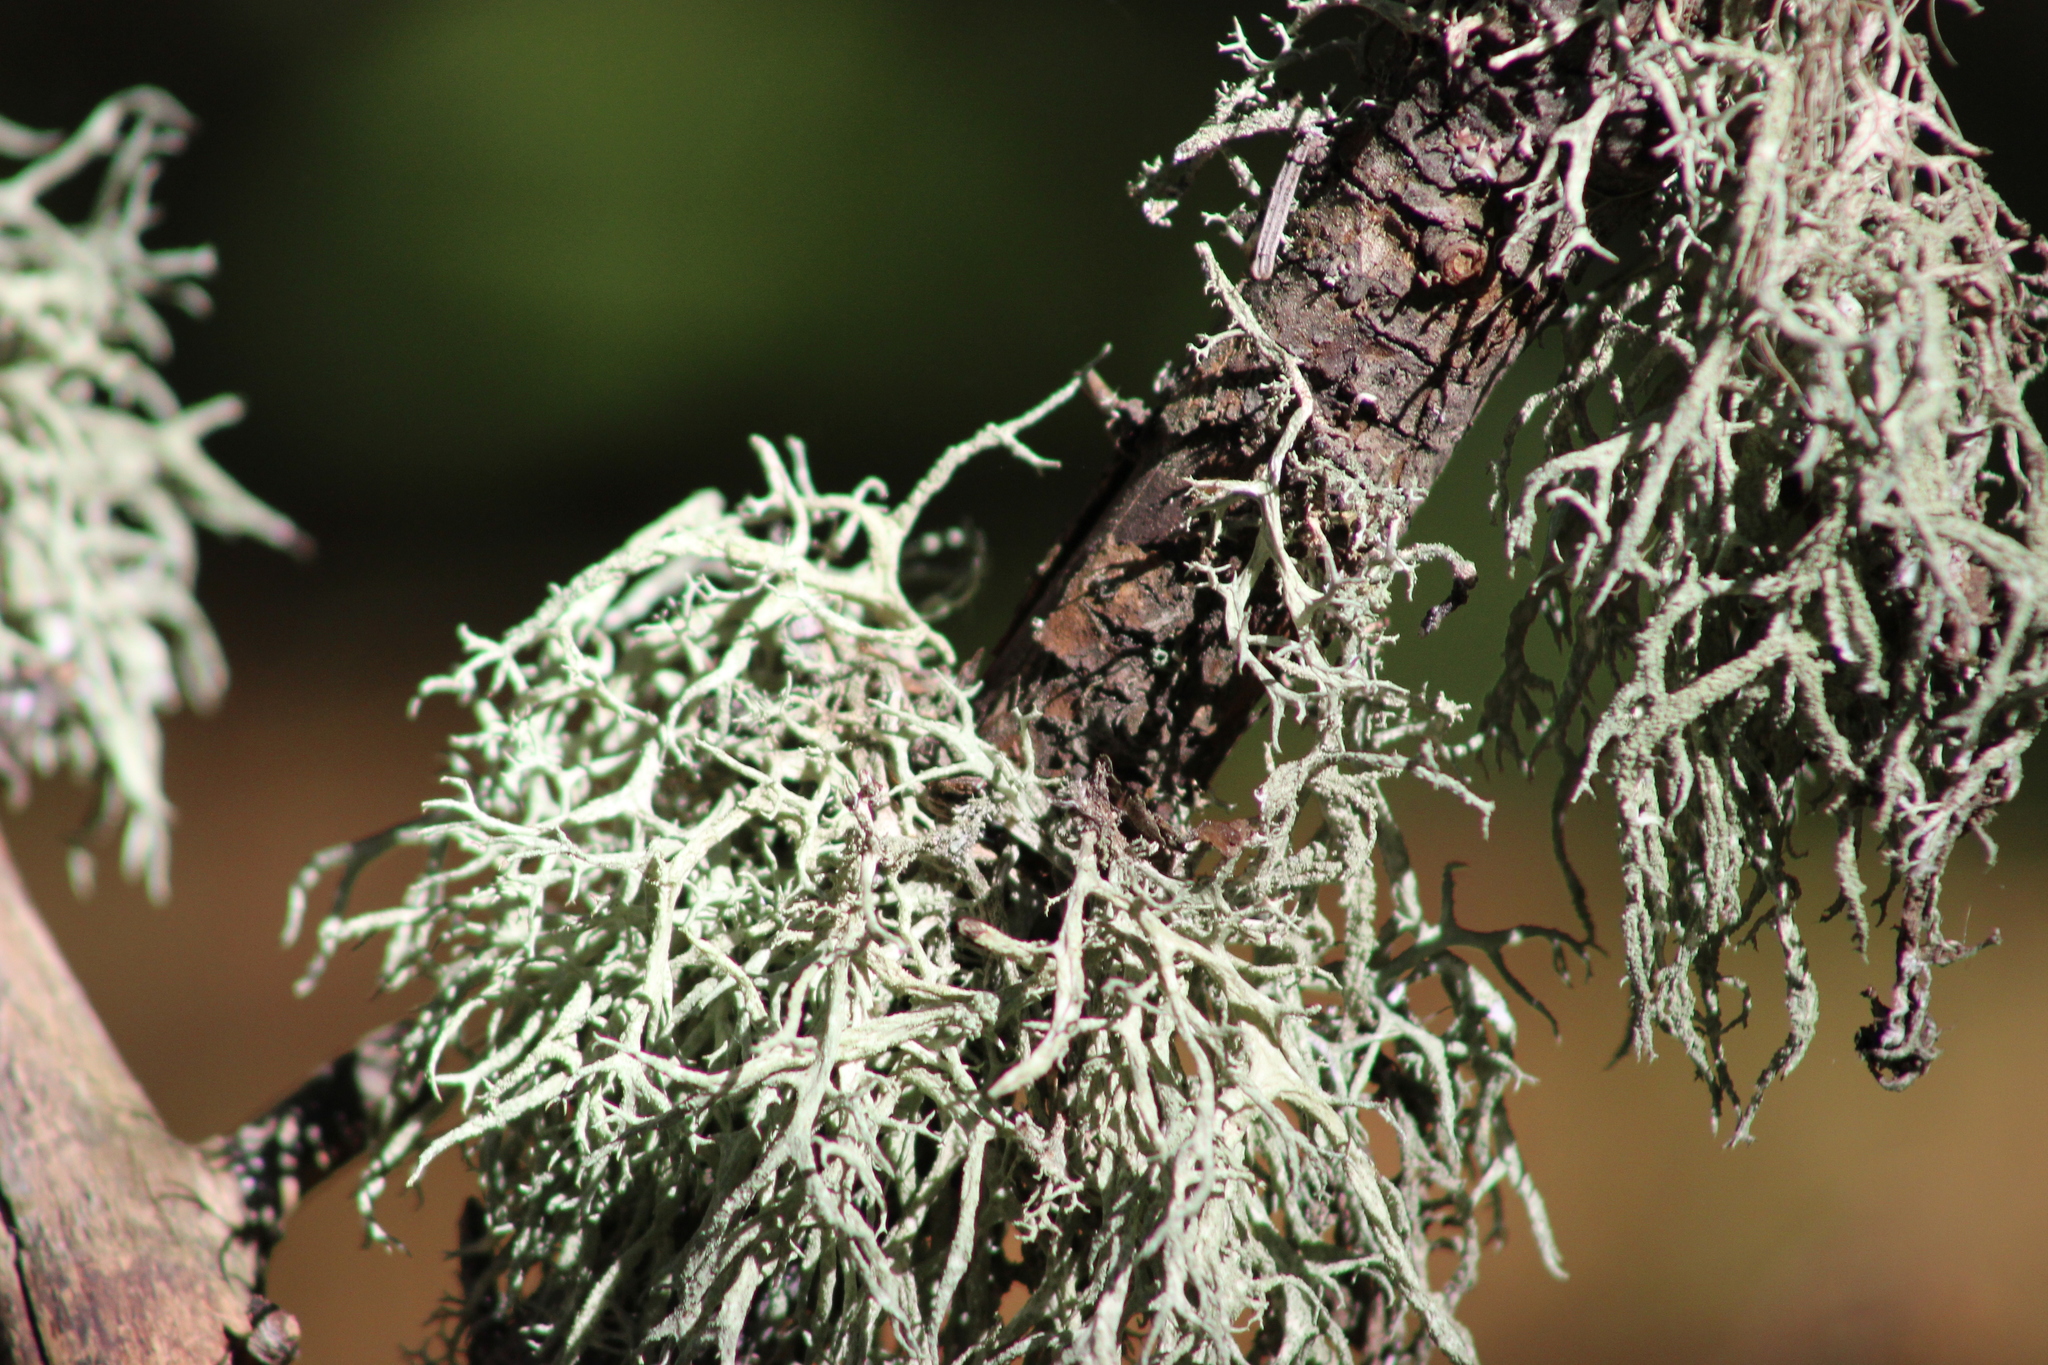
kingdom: Fungi
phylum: Ascomycota
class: Lecanoromycetes
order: Lecanorales
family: Parmeliaceae
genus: Evernia
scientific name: Evernia mesomorpha
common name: Boreal oak moss lichen
